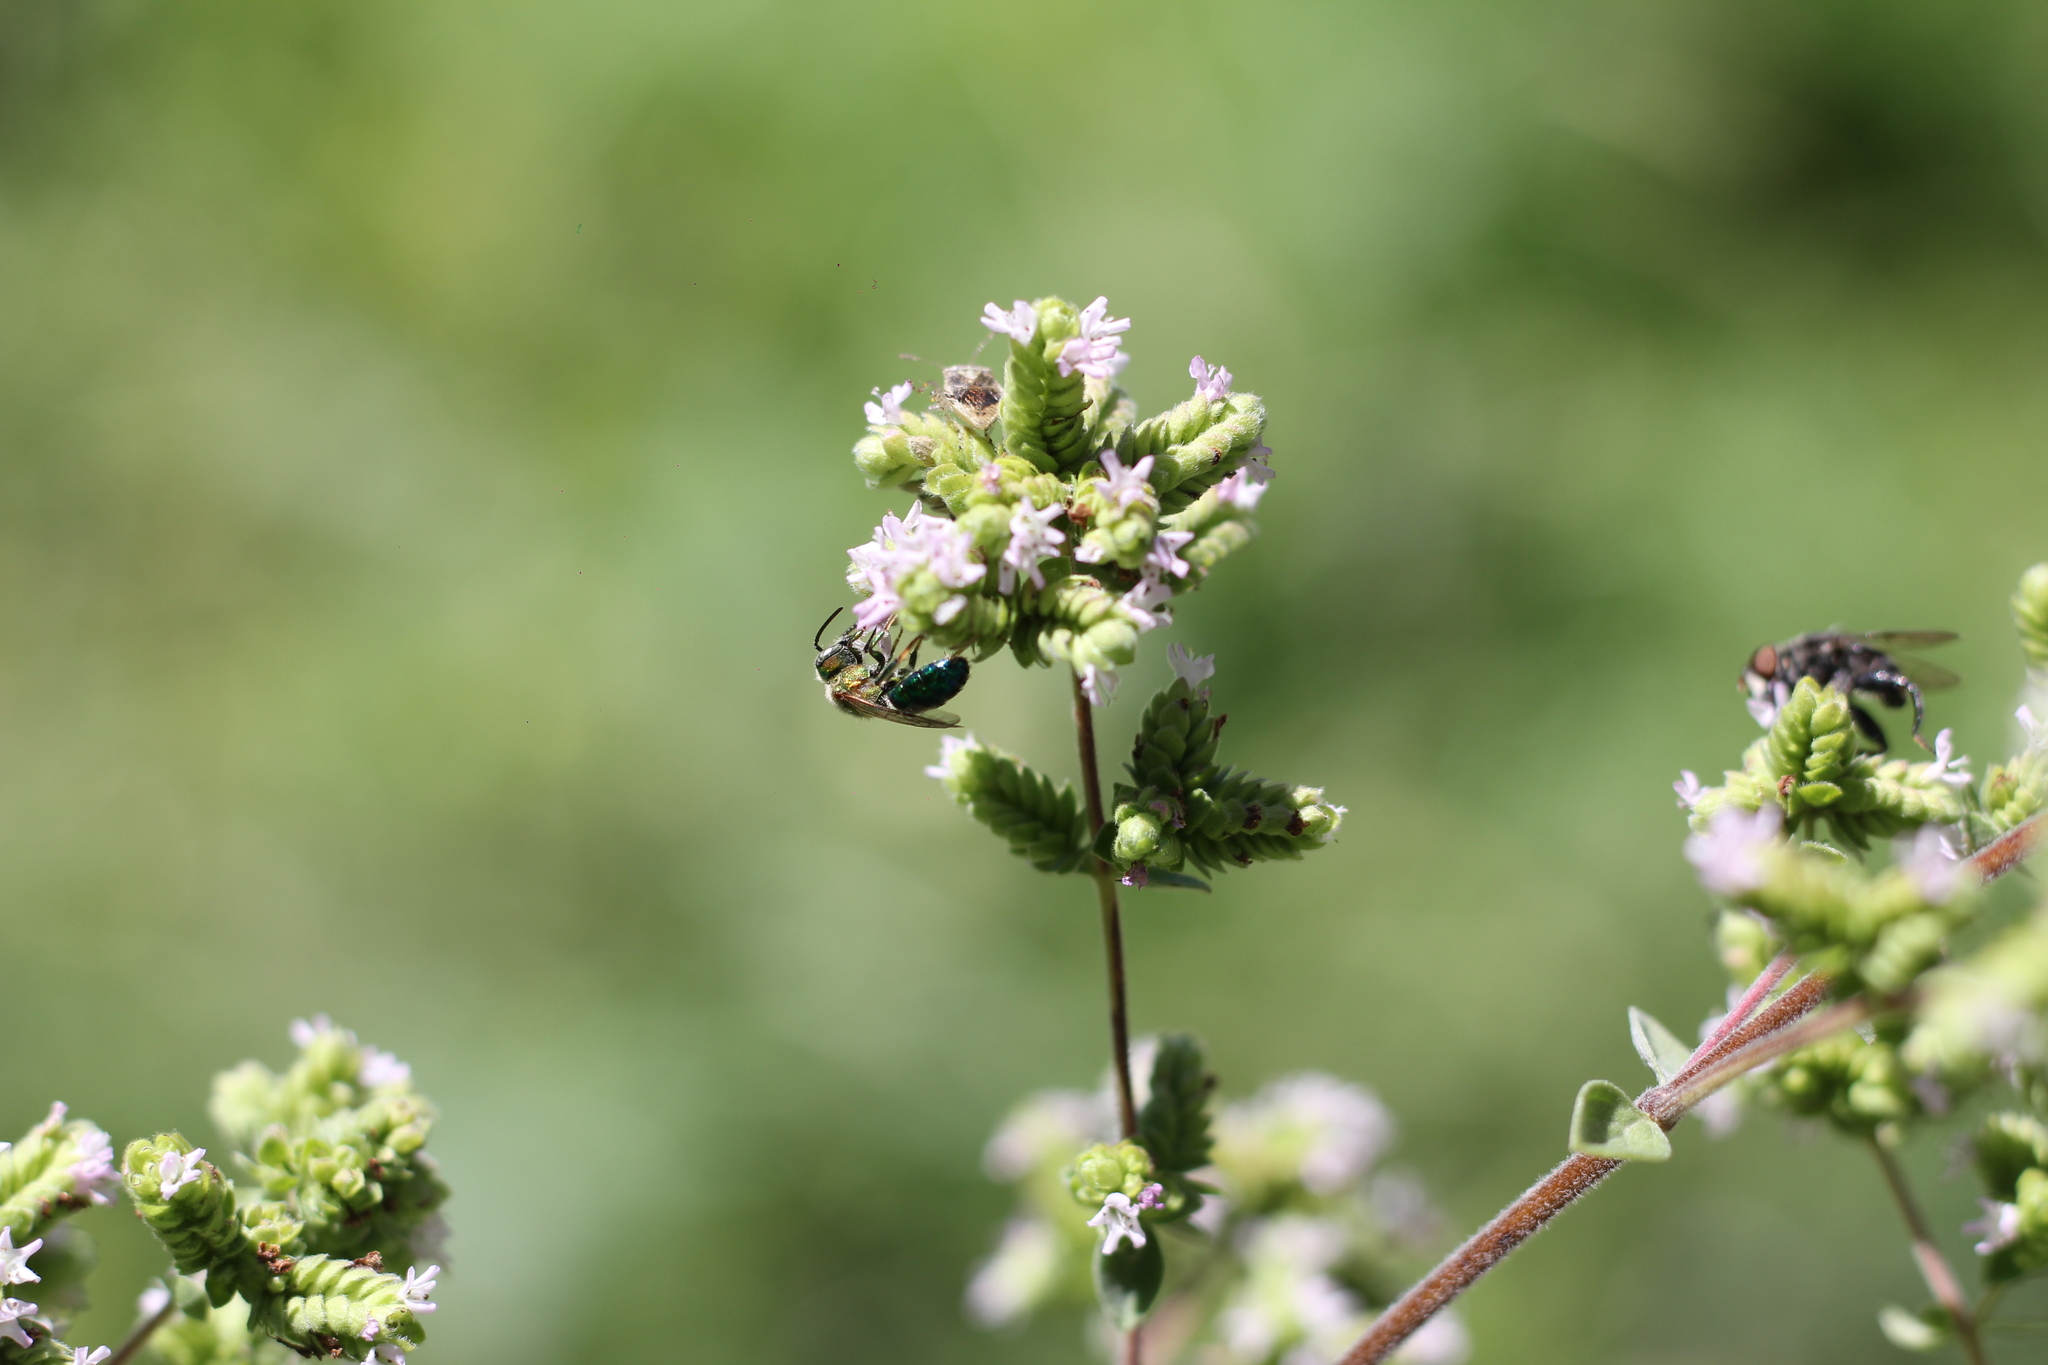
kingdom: Animalia
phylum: Arthropoda
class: Insecta
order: Hymenoptera
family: Halictidae
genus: Augochloropsis
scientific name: Augochloropsis tupacamaru
